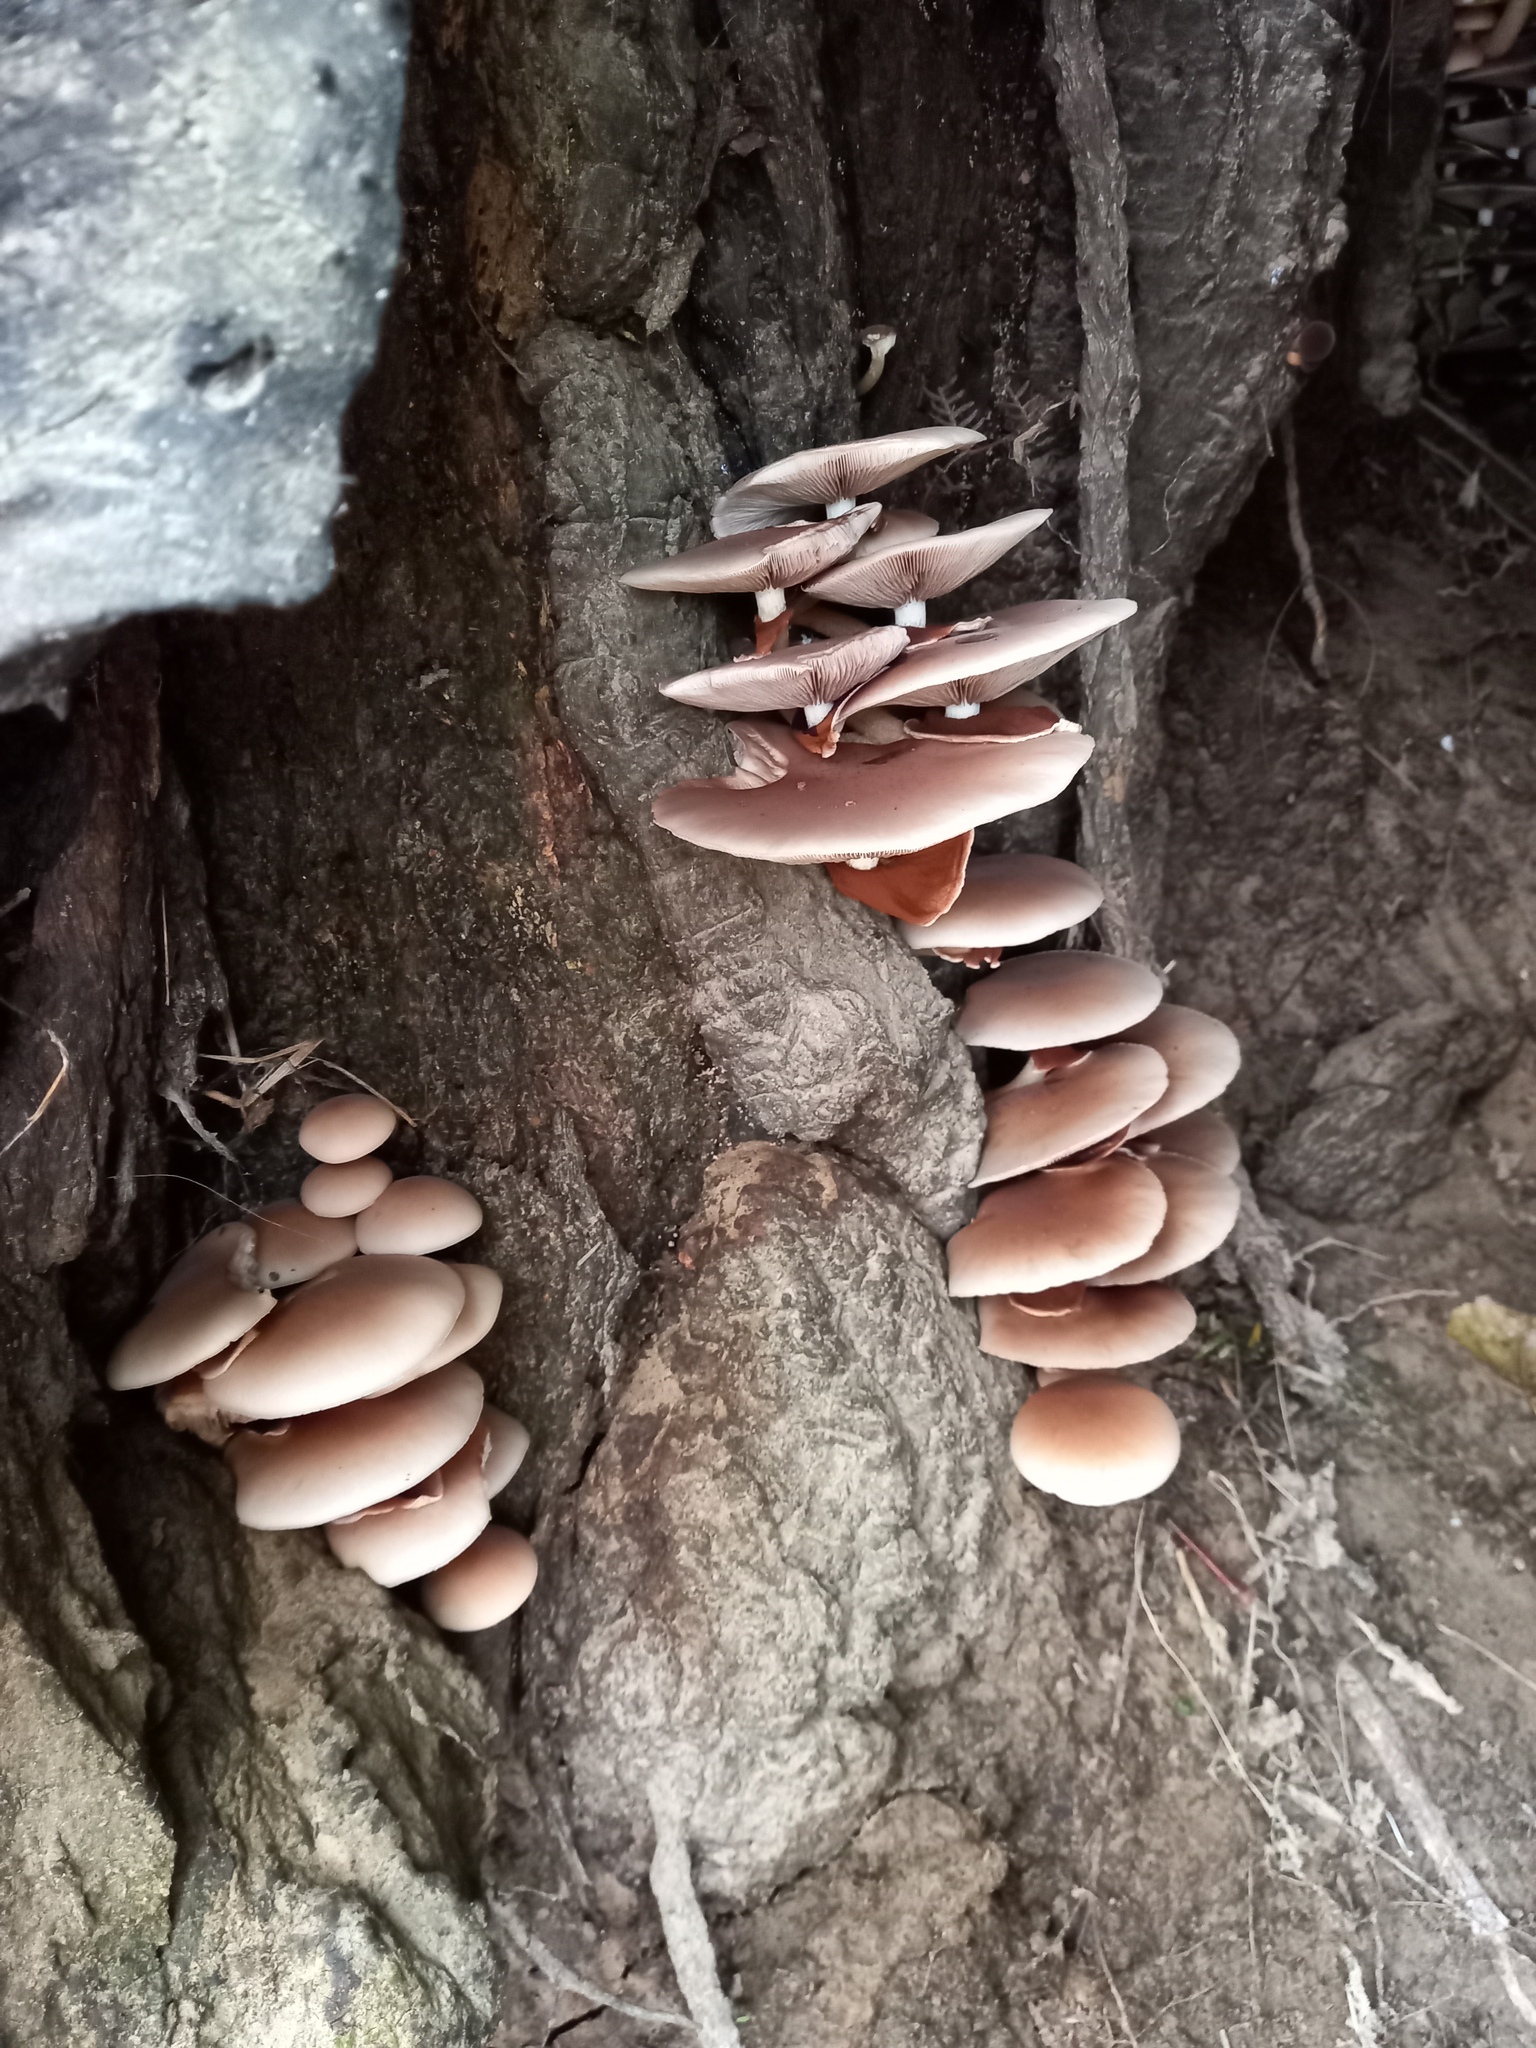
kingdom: Fungi
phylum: Basidiomycota
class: Agaricomycetes
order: Agaricales
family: Tubariaceae
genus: Cyclocybe
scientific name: Cyclocybe parasitica
